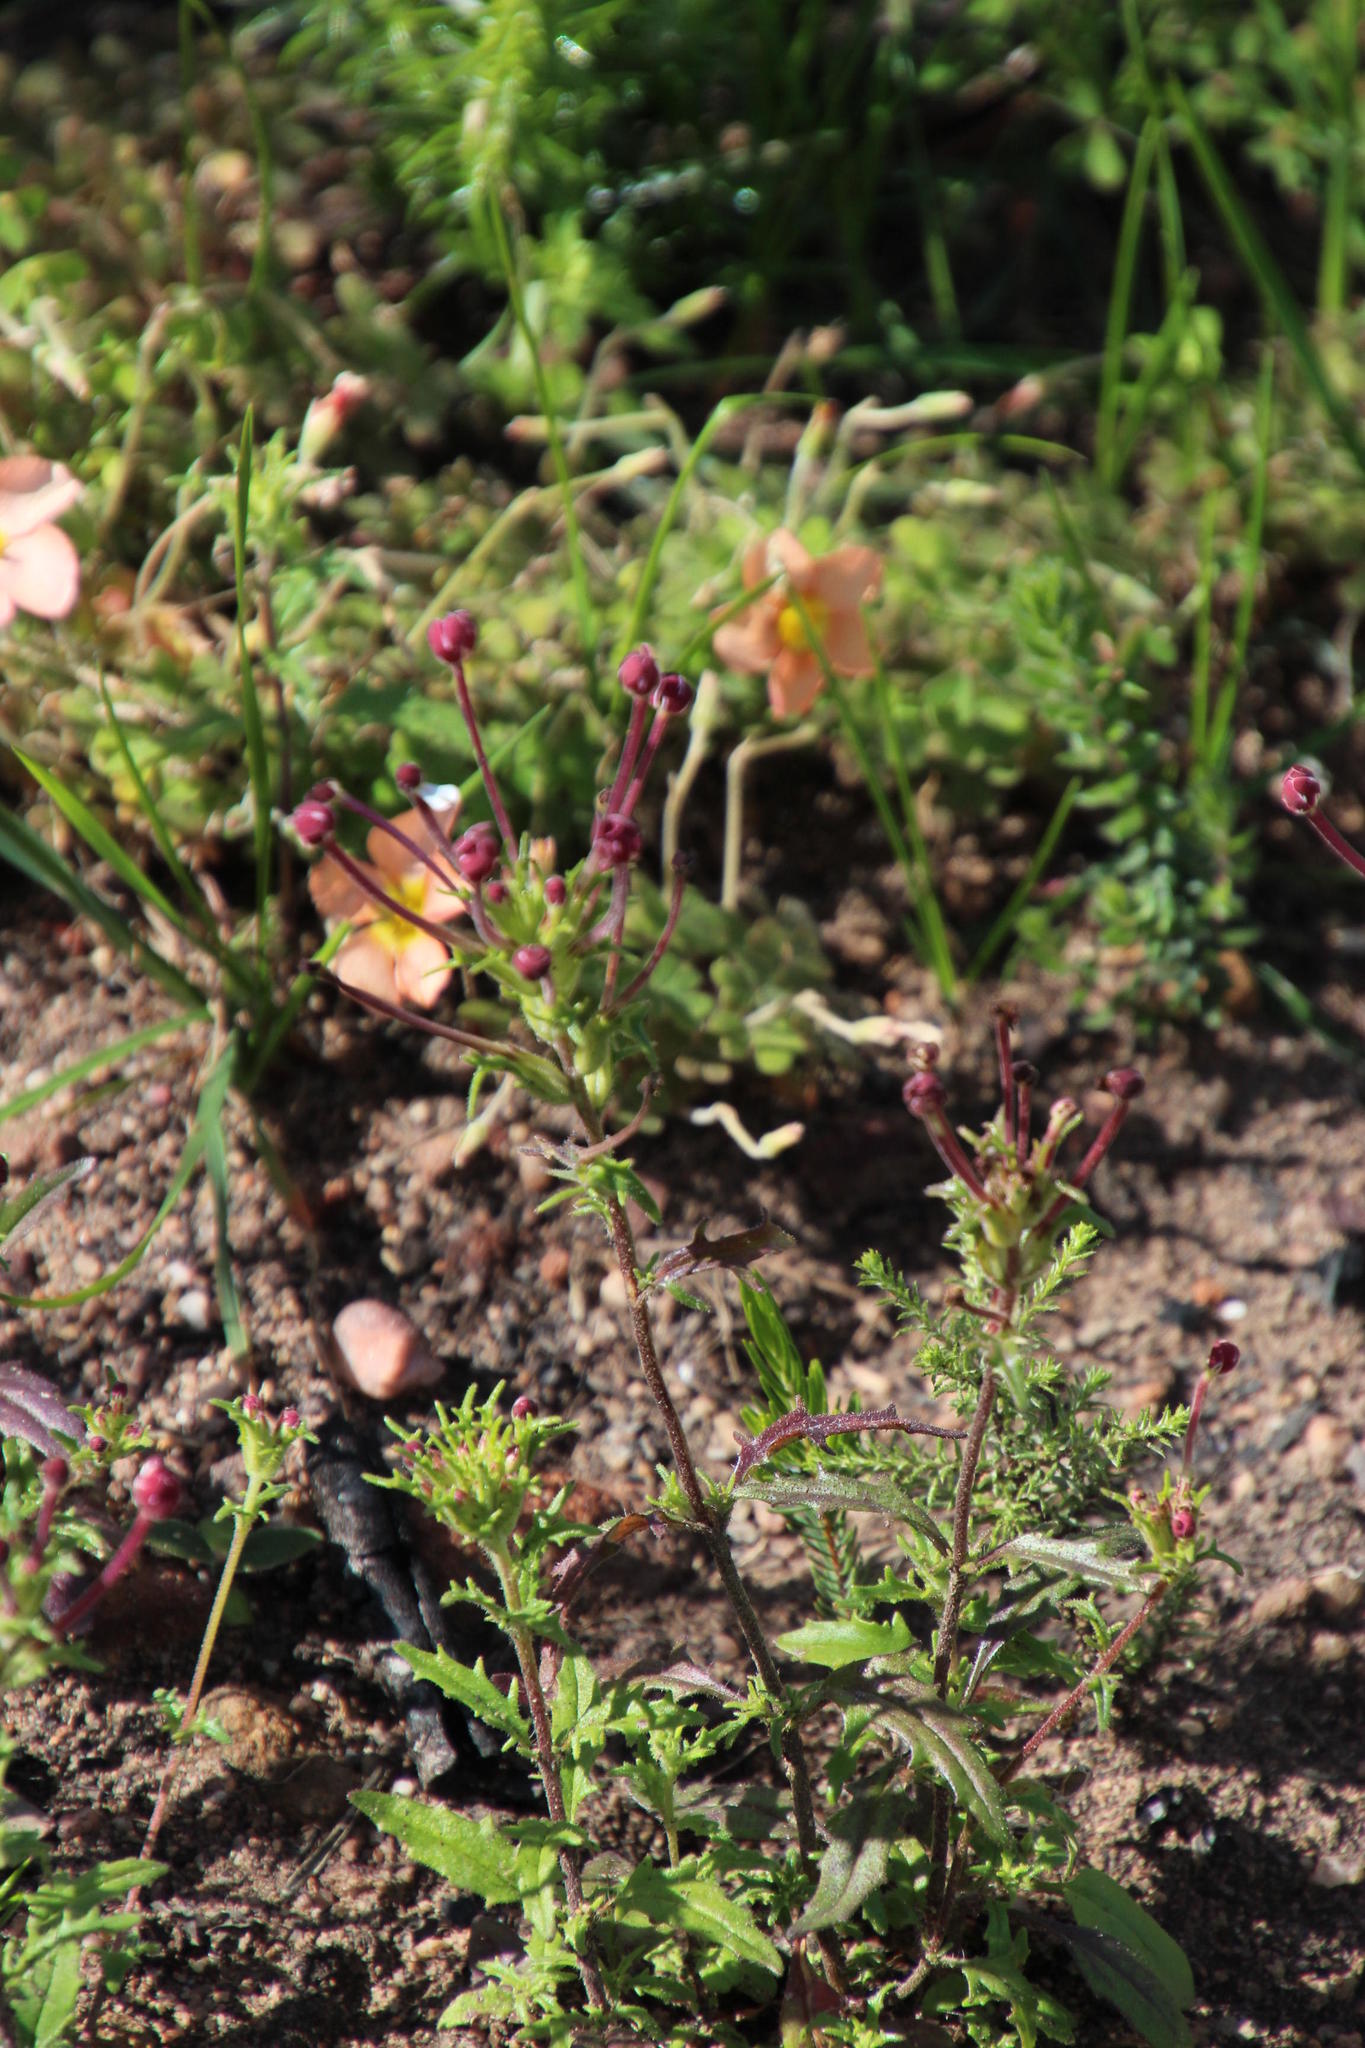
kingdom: Plantae
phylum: Tracheophyta
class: Magnoliopsida
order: Lamiales
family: Scrophulariaceae
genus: Zaluzianskya
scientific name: Zaluzianskya capensis
